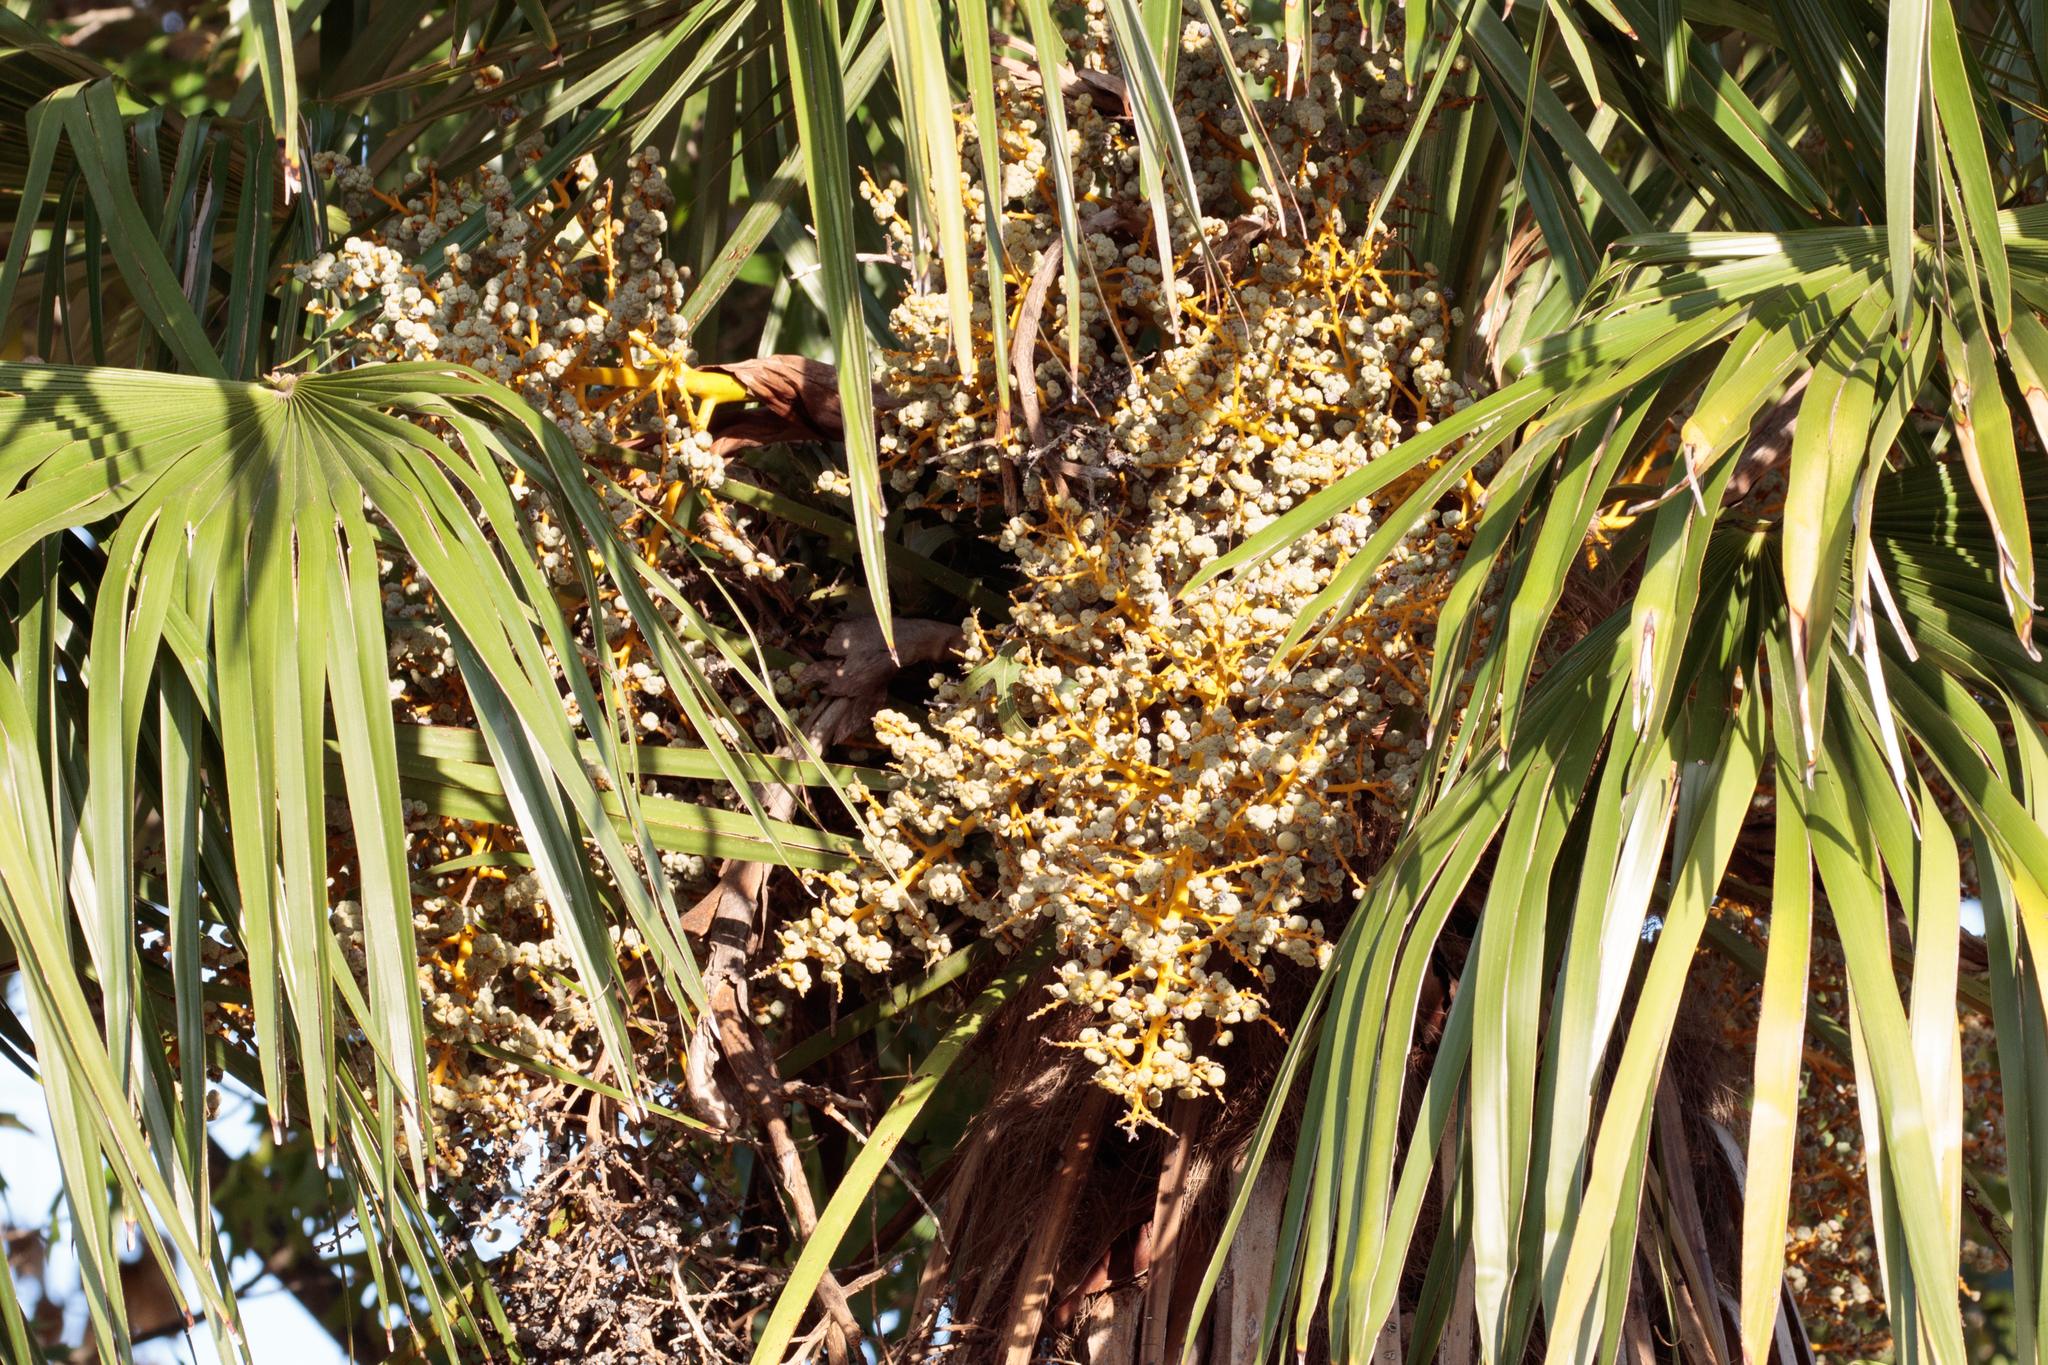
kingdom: Plantae
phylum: Tracheophyta
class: Liliopsida
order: Arecales
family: Arecaceae
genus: Sabal
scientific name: Sabal mexicana
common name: Texas palmetto
